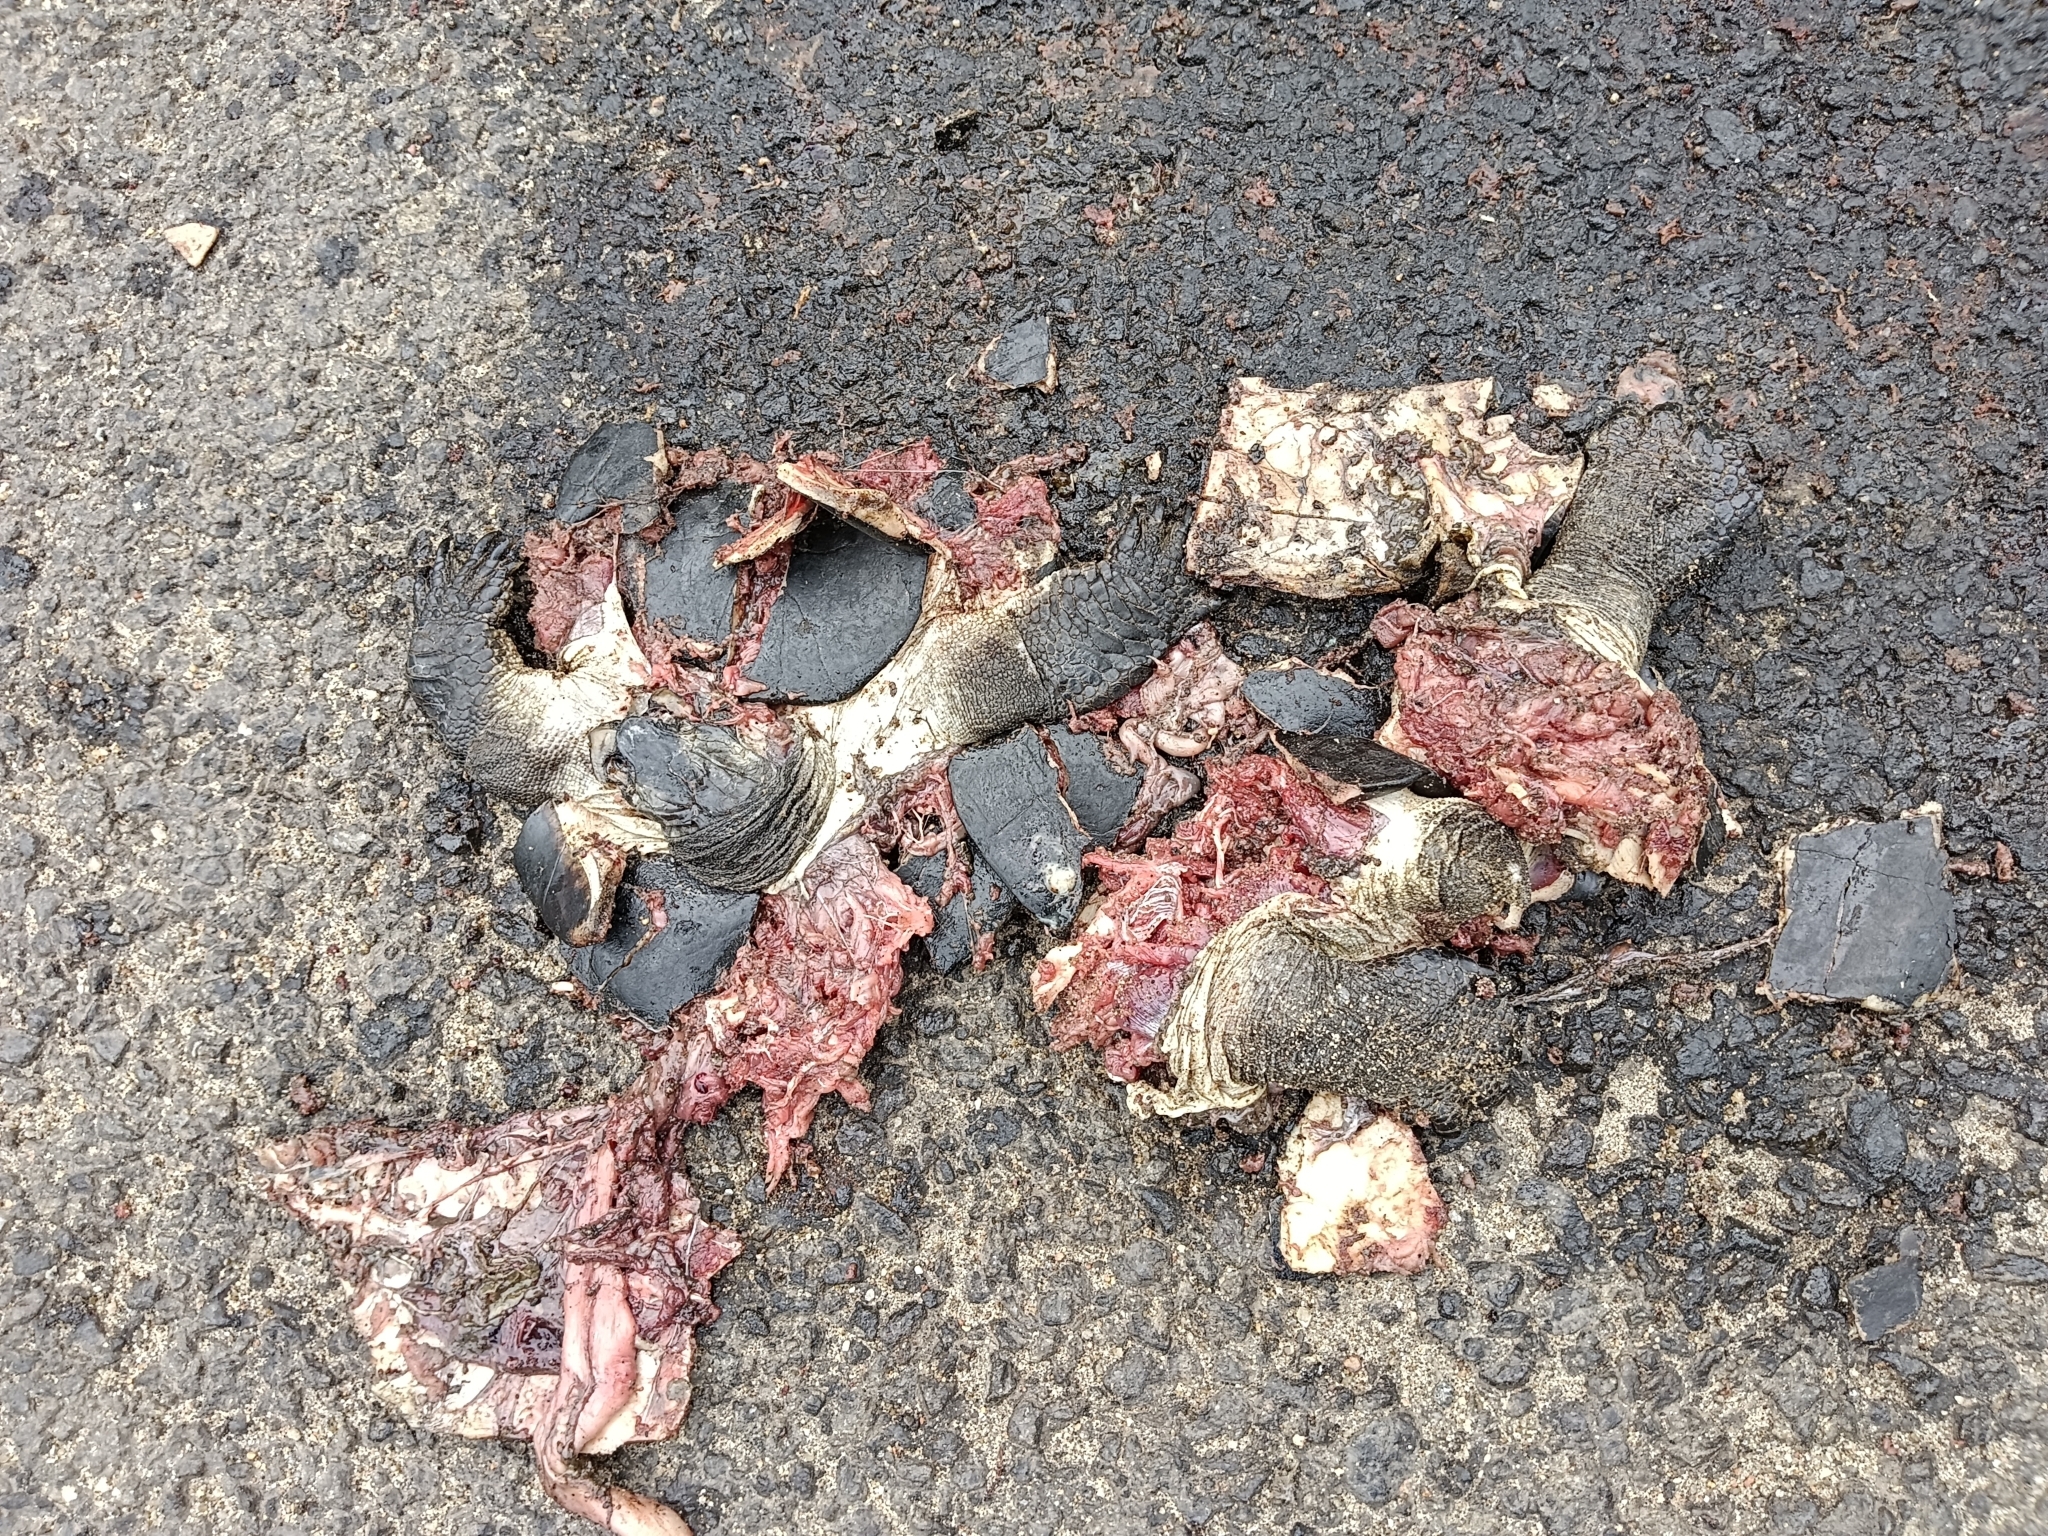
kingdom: Animalia
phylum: Chordata
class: Testudines
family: Geoemydidae
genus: Melanochelys
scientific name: Melanochelys trijuga
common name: Indian black turtle
